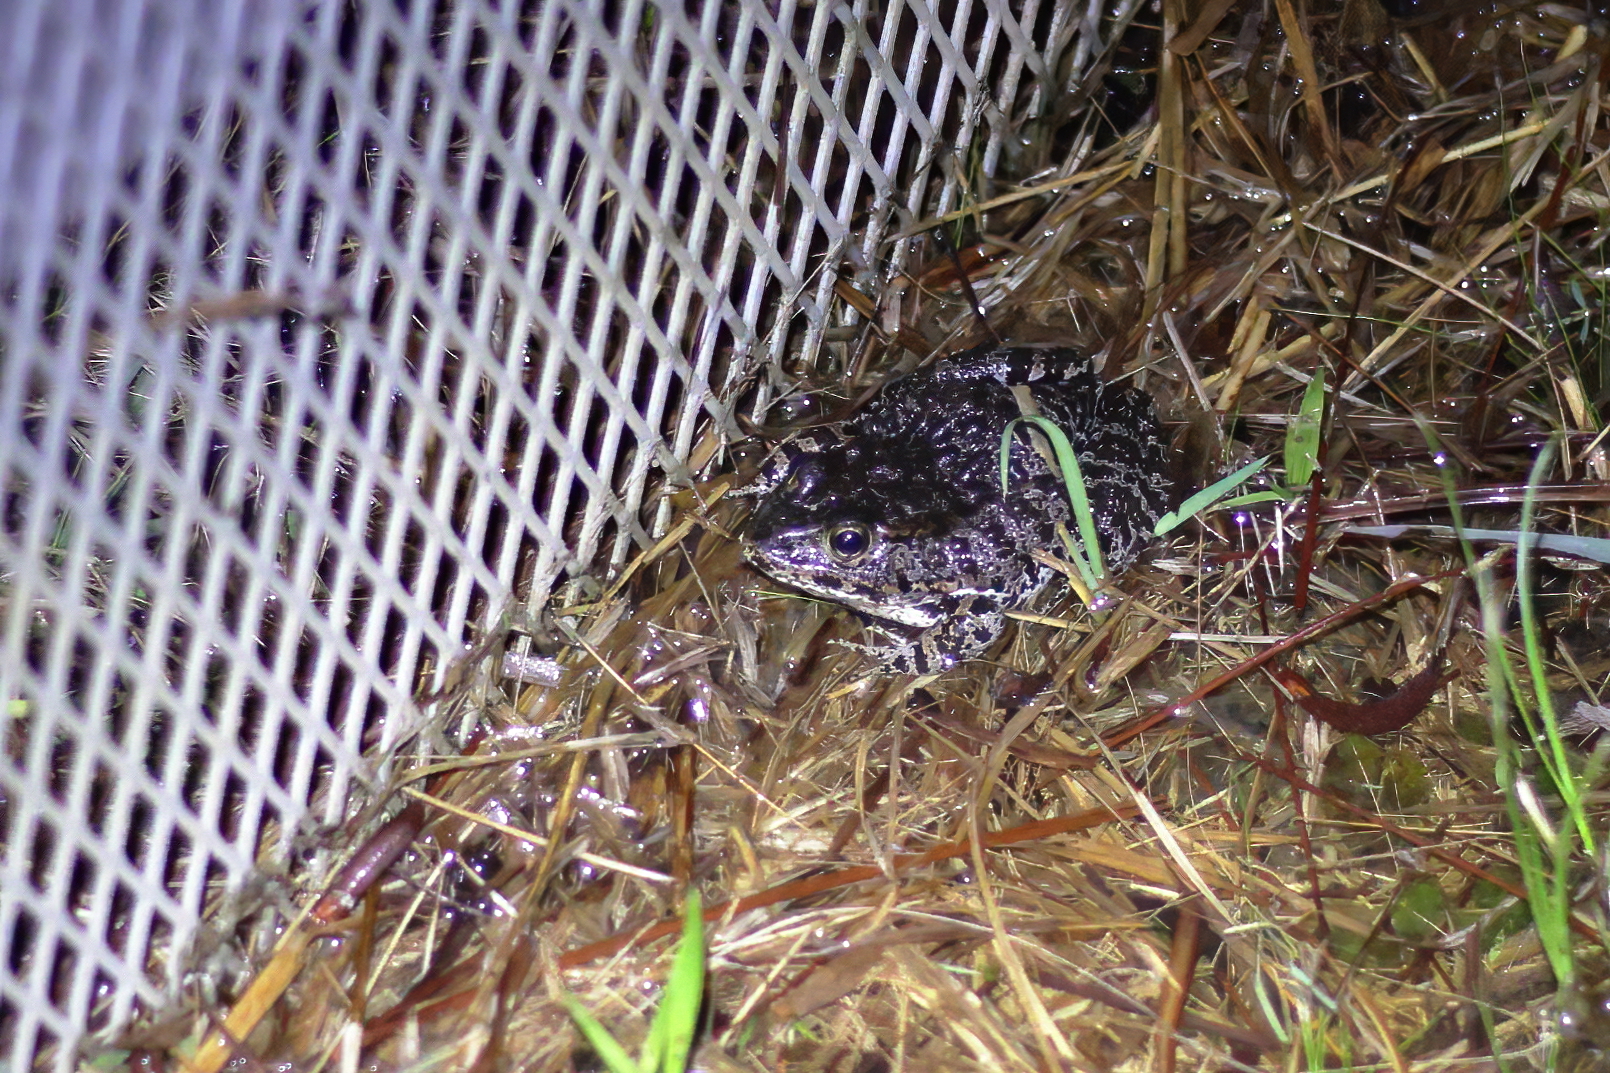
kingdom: Animalia
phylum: Chordata
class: Amphibia
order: Anura
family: Ranidae
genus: Lithobates
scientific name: Lithobates sevosus
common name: Dusky gopher frog
